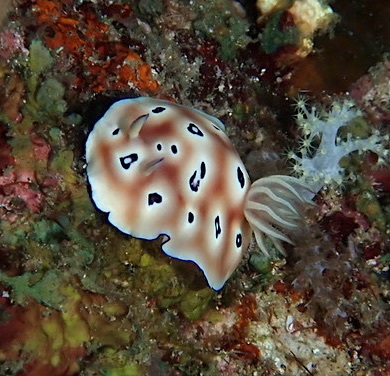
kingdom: Animalia
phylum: Mollusca
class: Gastropoda
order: Nudibranchia
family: Chromodorididae
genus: Goniobranchus
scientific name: Goniobranchus leopardus
